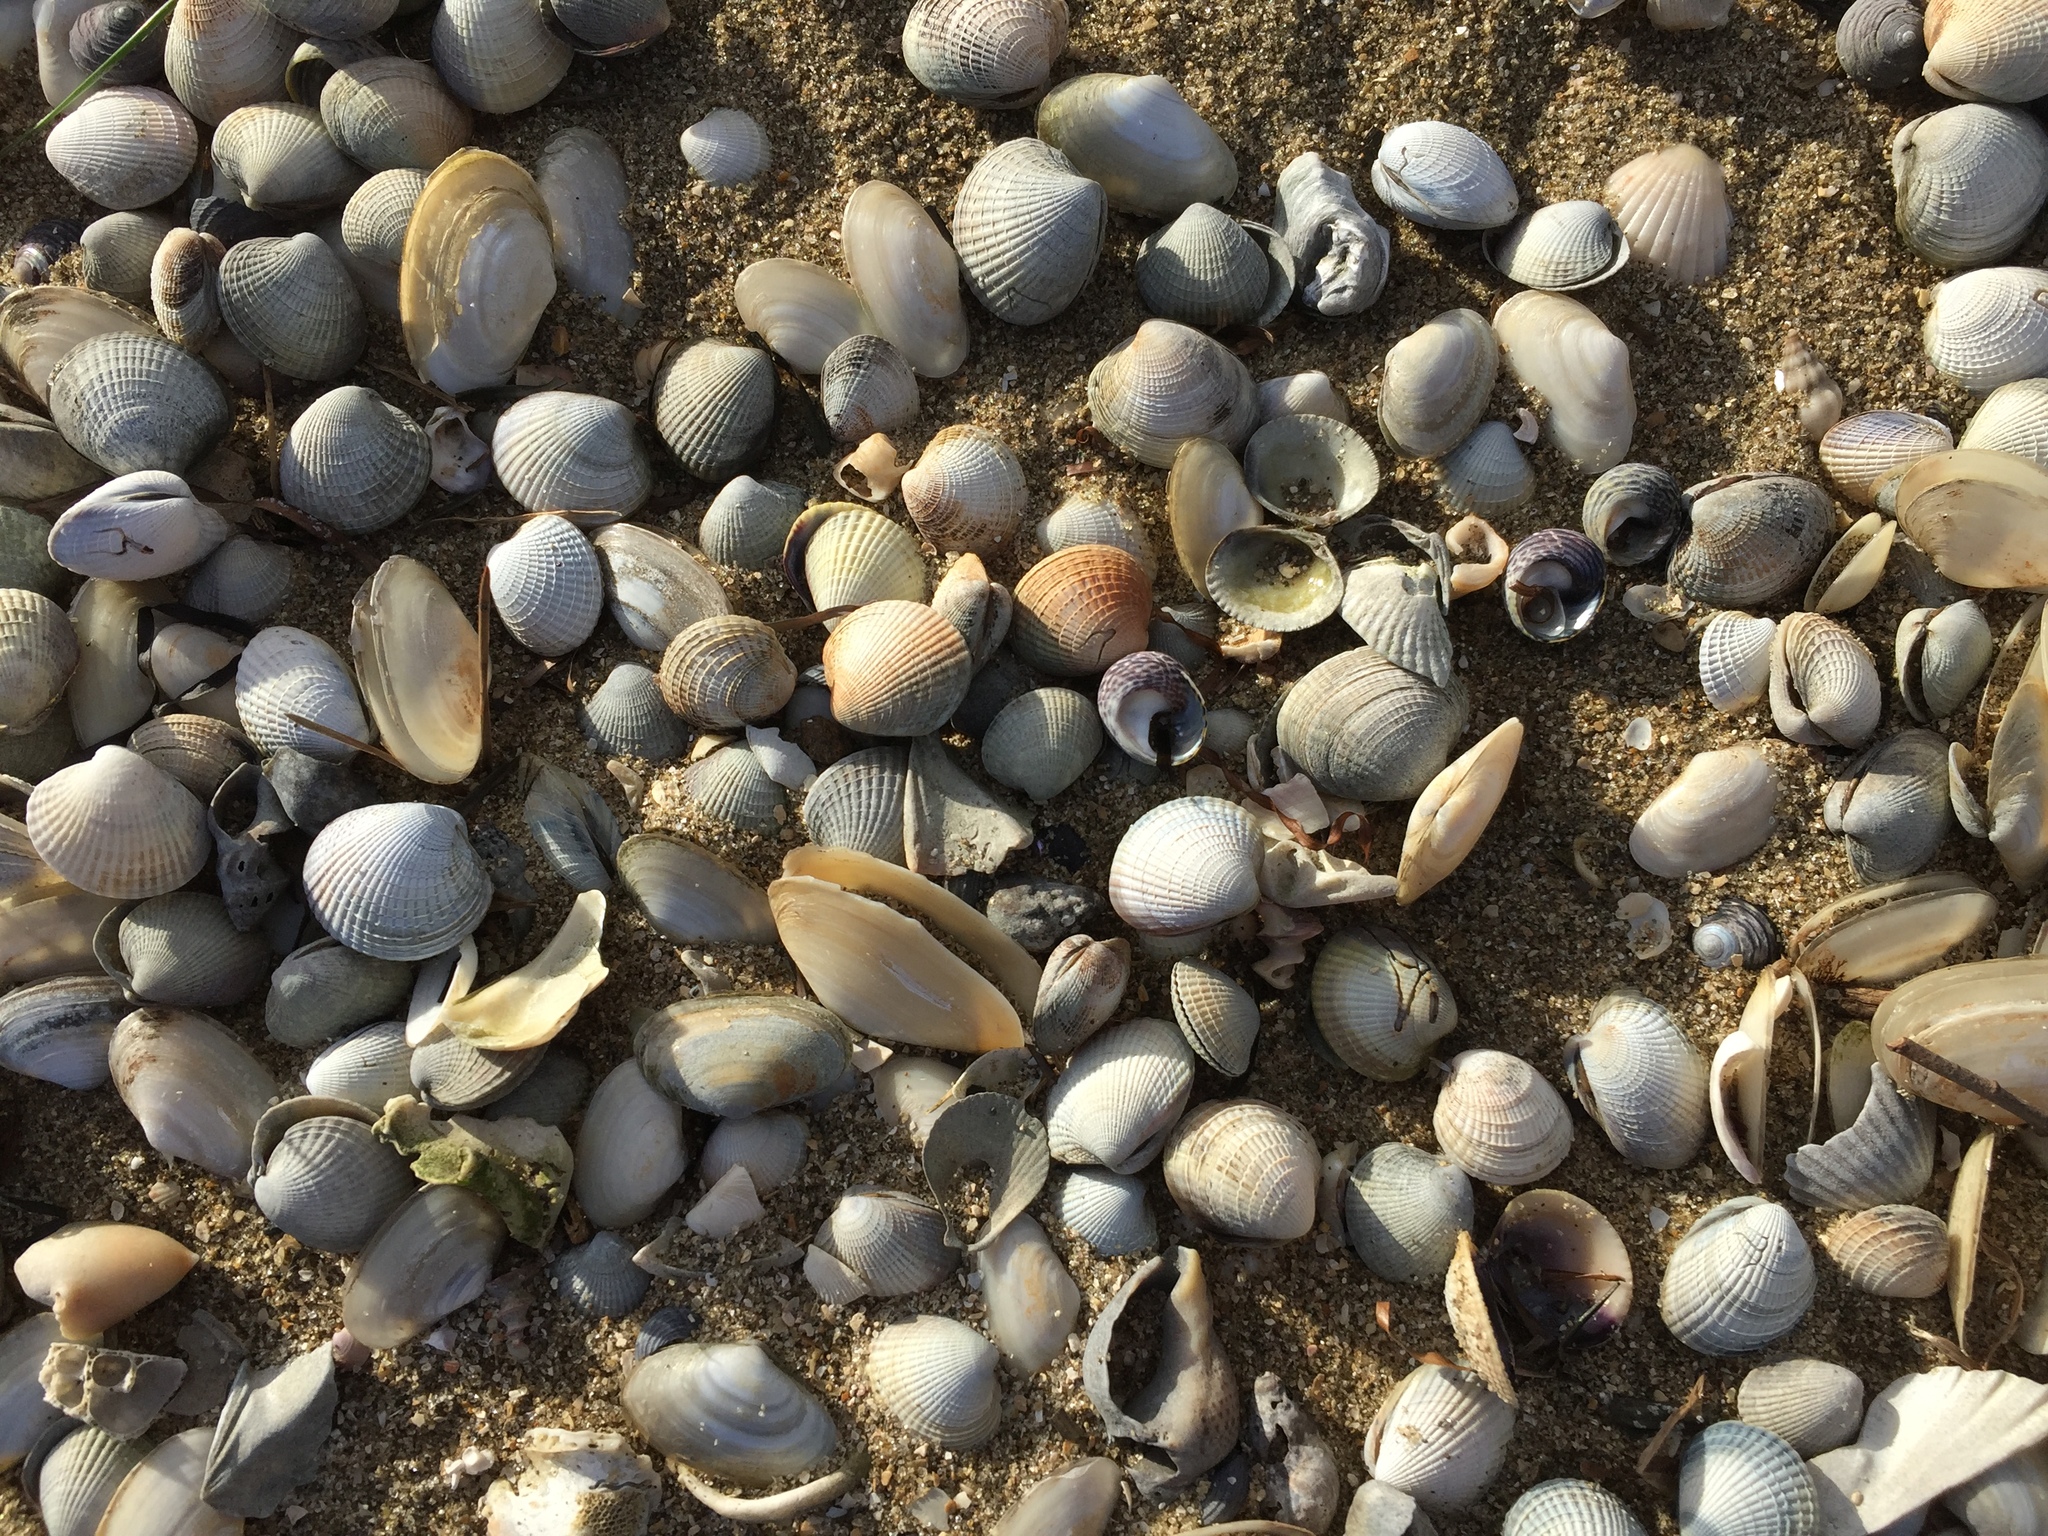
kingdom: Animalia
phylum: Mollusca
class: Bivalvia
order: Venerida
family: Veneridae
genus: Austrovenus
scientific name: Austrovenus stutchburyi
